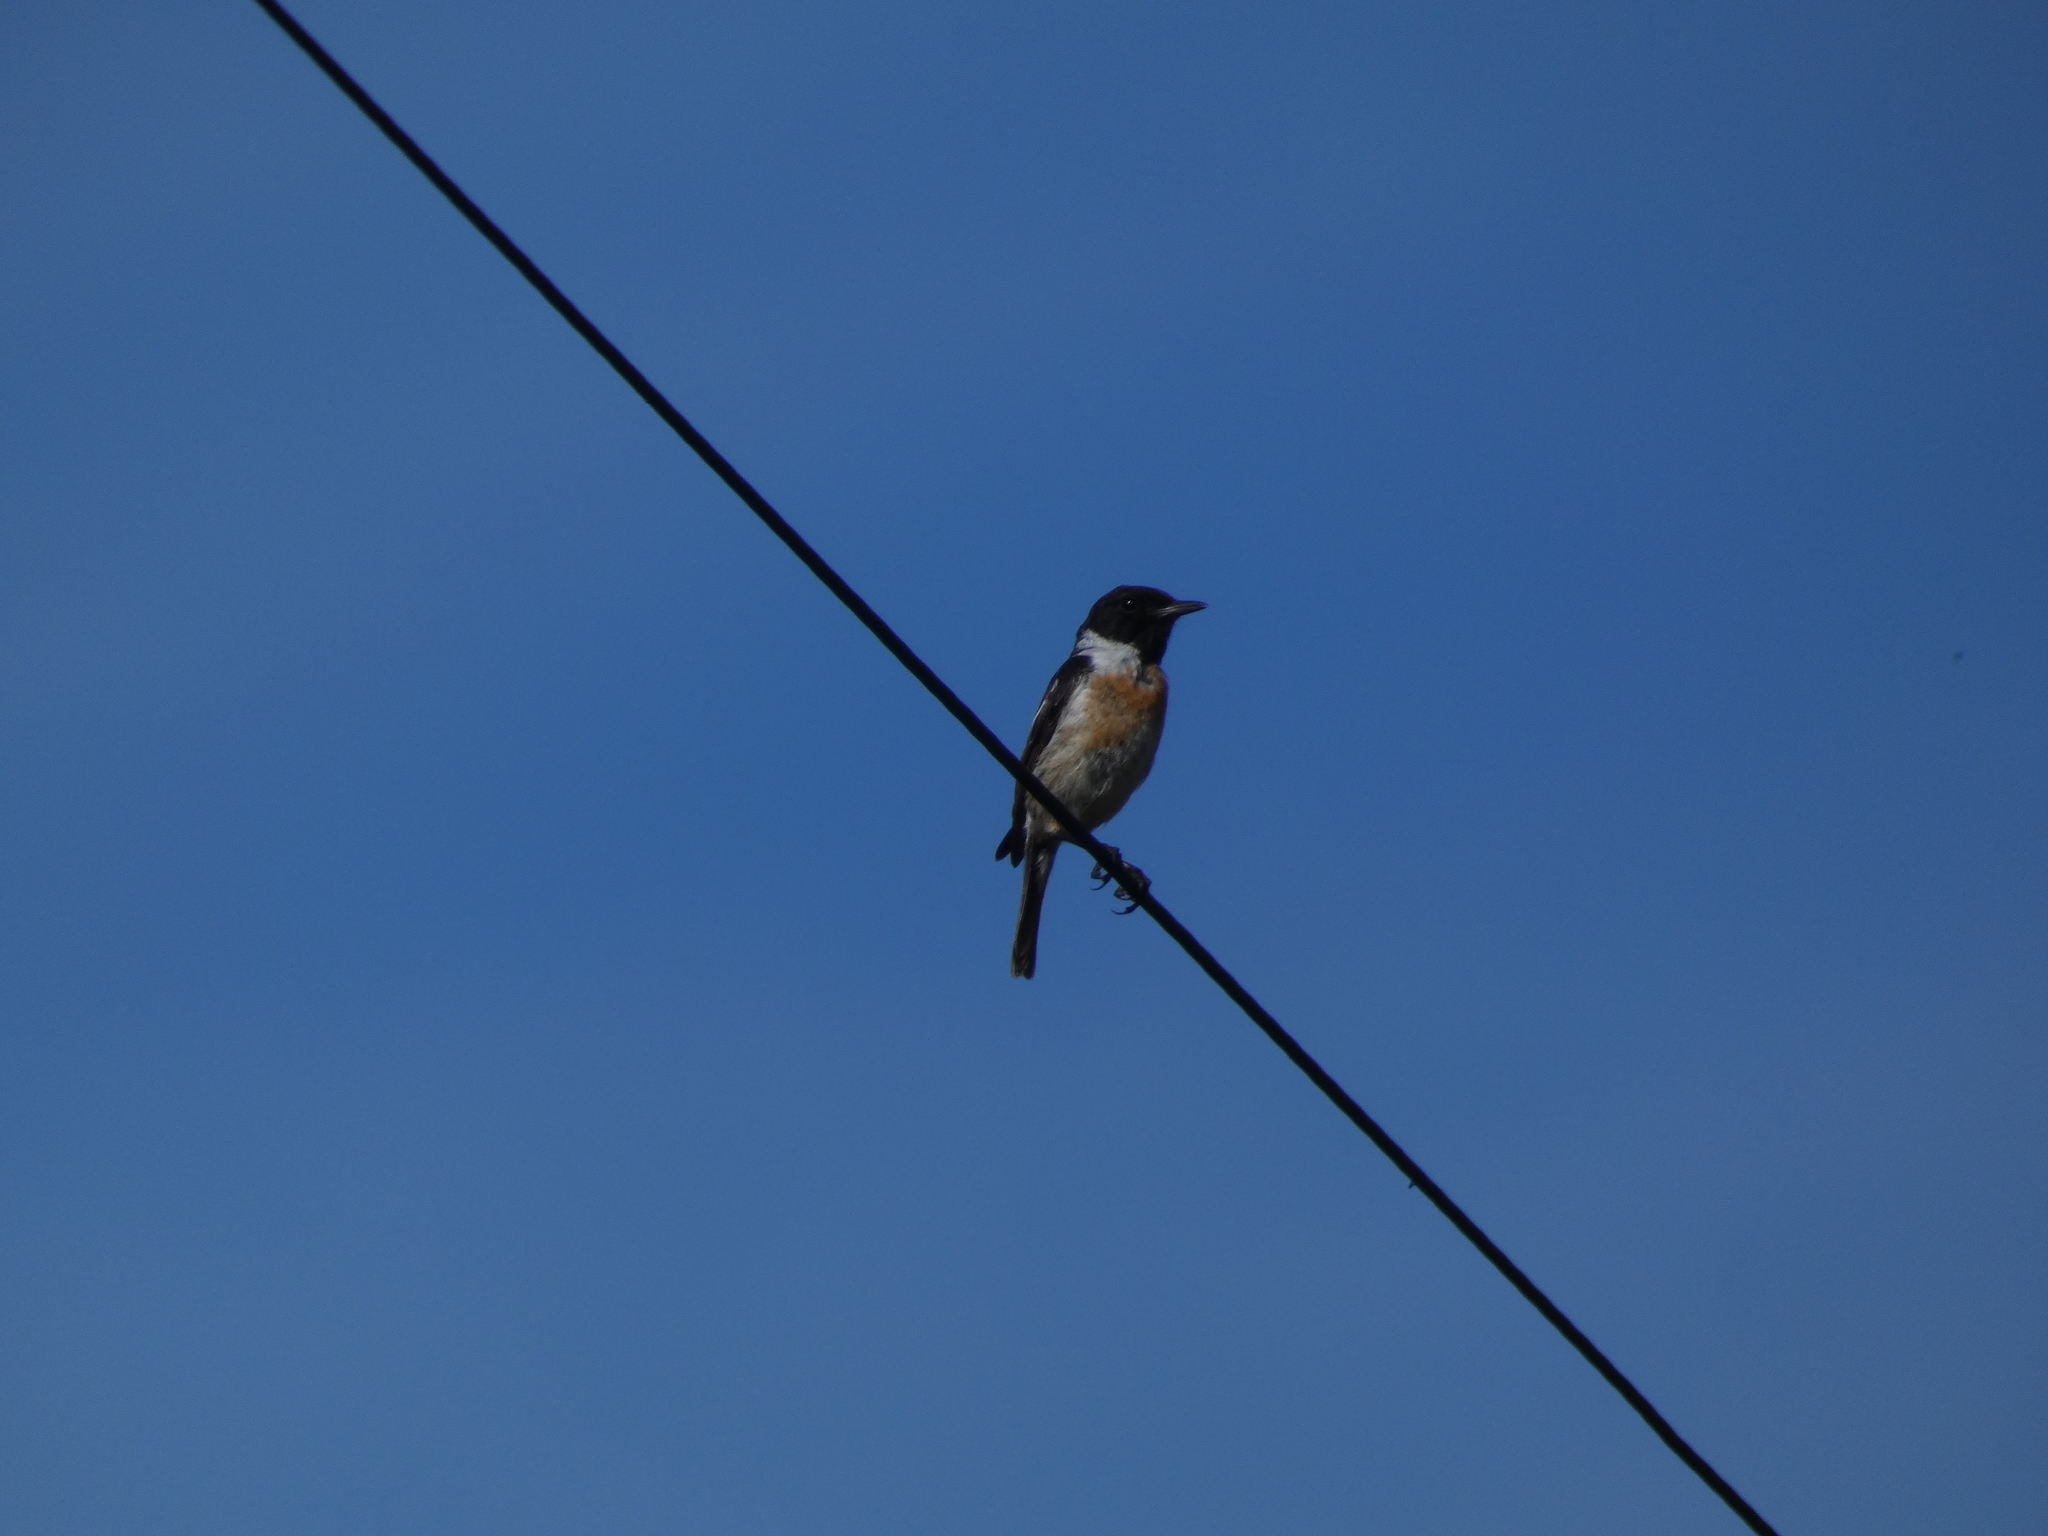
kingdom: Animalia
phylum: Chordata
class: Aves
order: Passeriformes
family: Muscicapidae
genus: Saxicola
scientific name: Saxicola rubicola
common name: European stonechat
